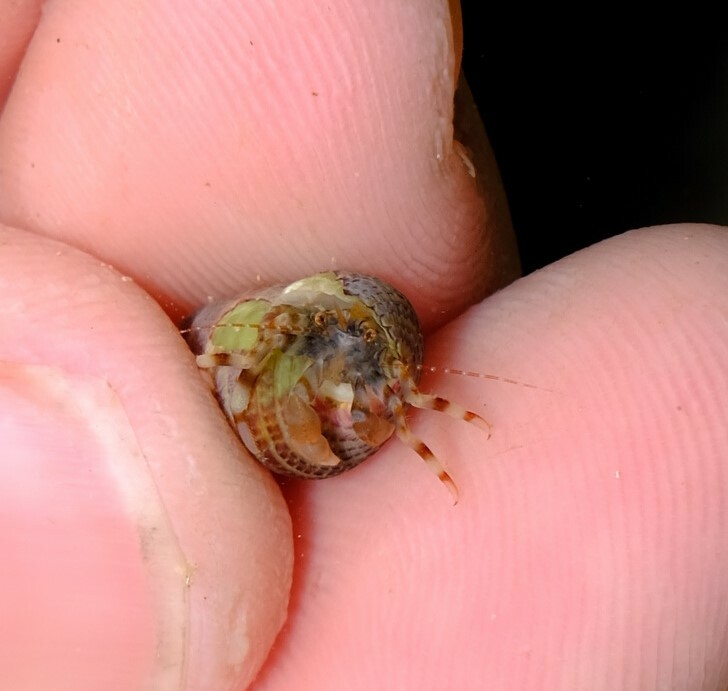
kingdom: Animalia
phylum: Arthropoda
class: Malacostraca
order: Decapoda
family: Paguridae
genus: Pagurixus
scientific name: Pagurixus jerviensis
